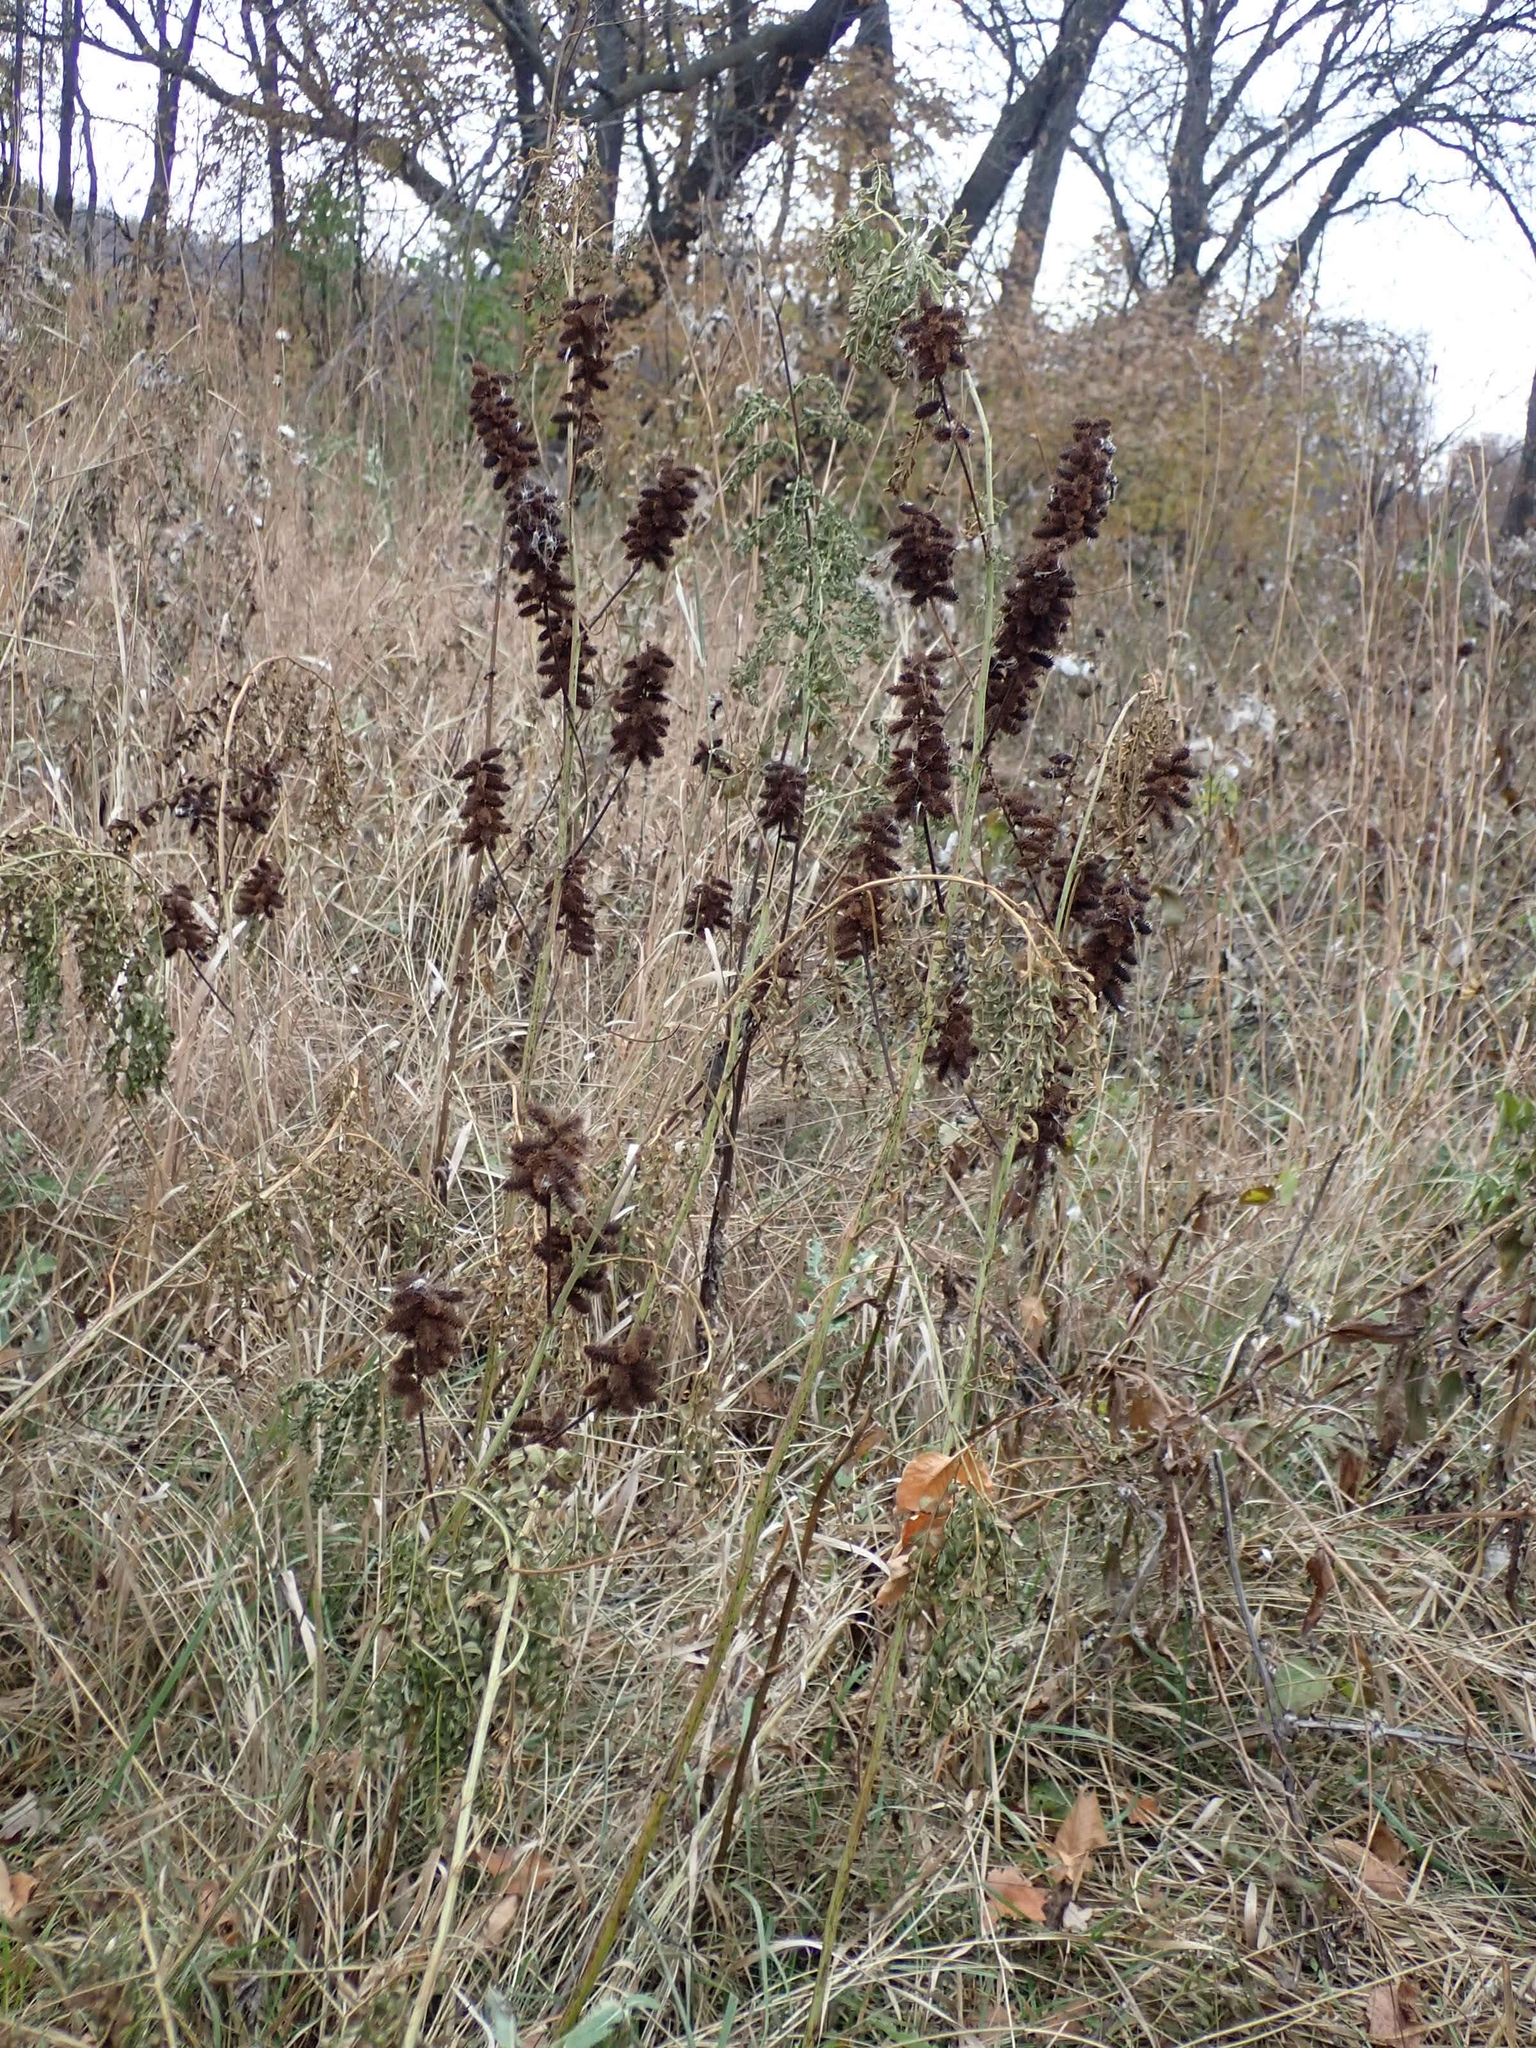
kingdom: Plantae
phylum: Tracheophyta
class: Magnoliopsida
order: Fabales
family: Fabaceae
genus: Glycyrrhiza
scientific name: Glycyrrhiza lepidota
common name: American liquorice
